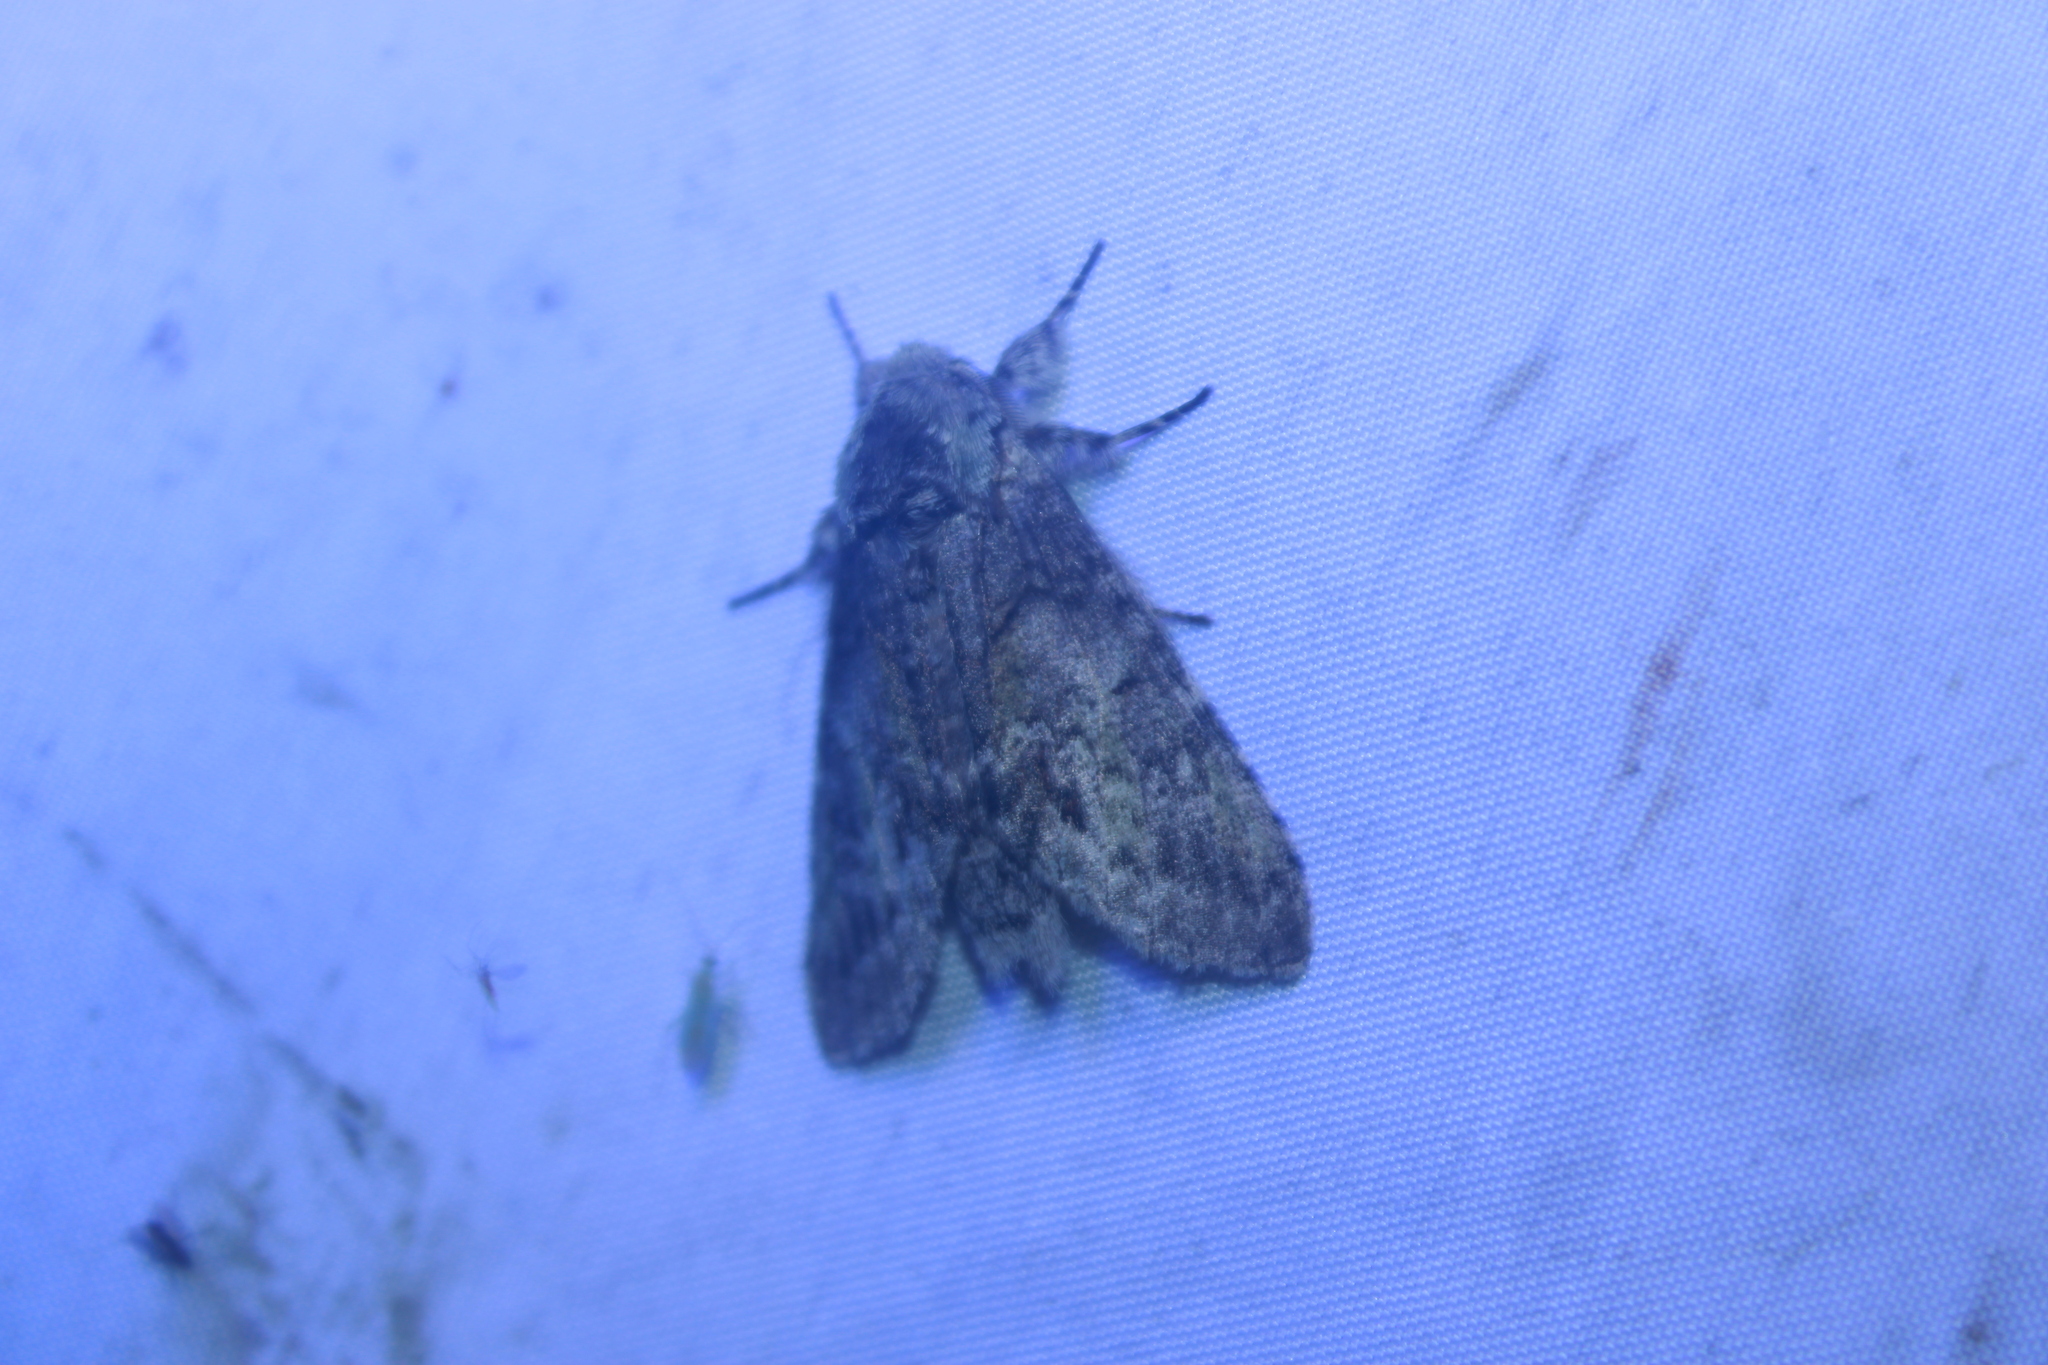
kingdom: Animalia
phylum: Arthropoda
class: Insecta
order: Lepidoptera
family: Notodontidae
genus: Macrurocampa
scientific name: Macrurocampa marthesia
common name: Mottled prominent
